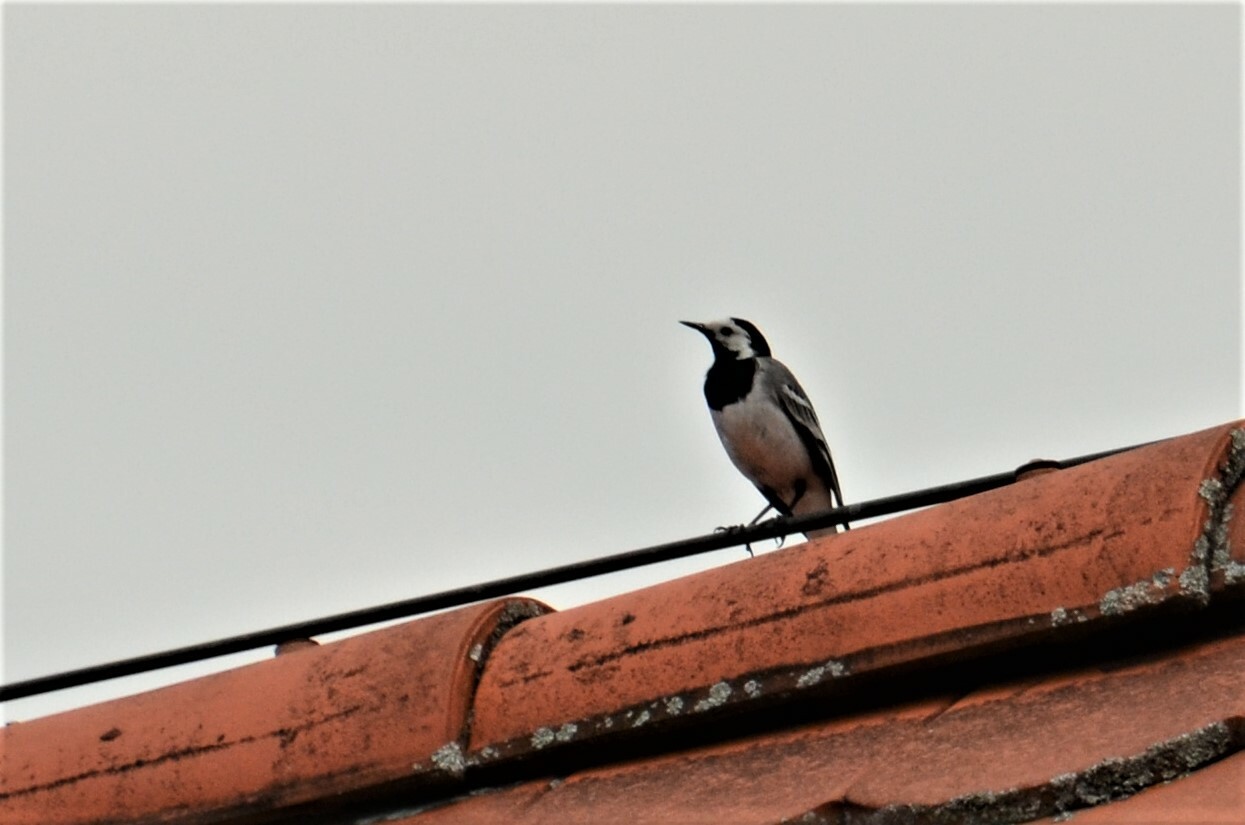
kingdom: Animalia
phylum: Chordata
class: Aves
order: Passeriformes
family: Motacillidae
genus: Motacilla
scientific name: Motacilla alba
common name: White wagtail
